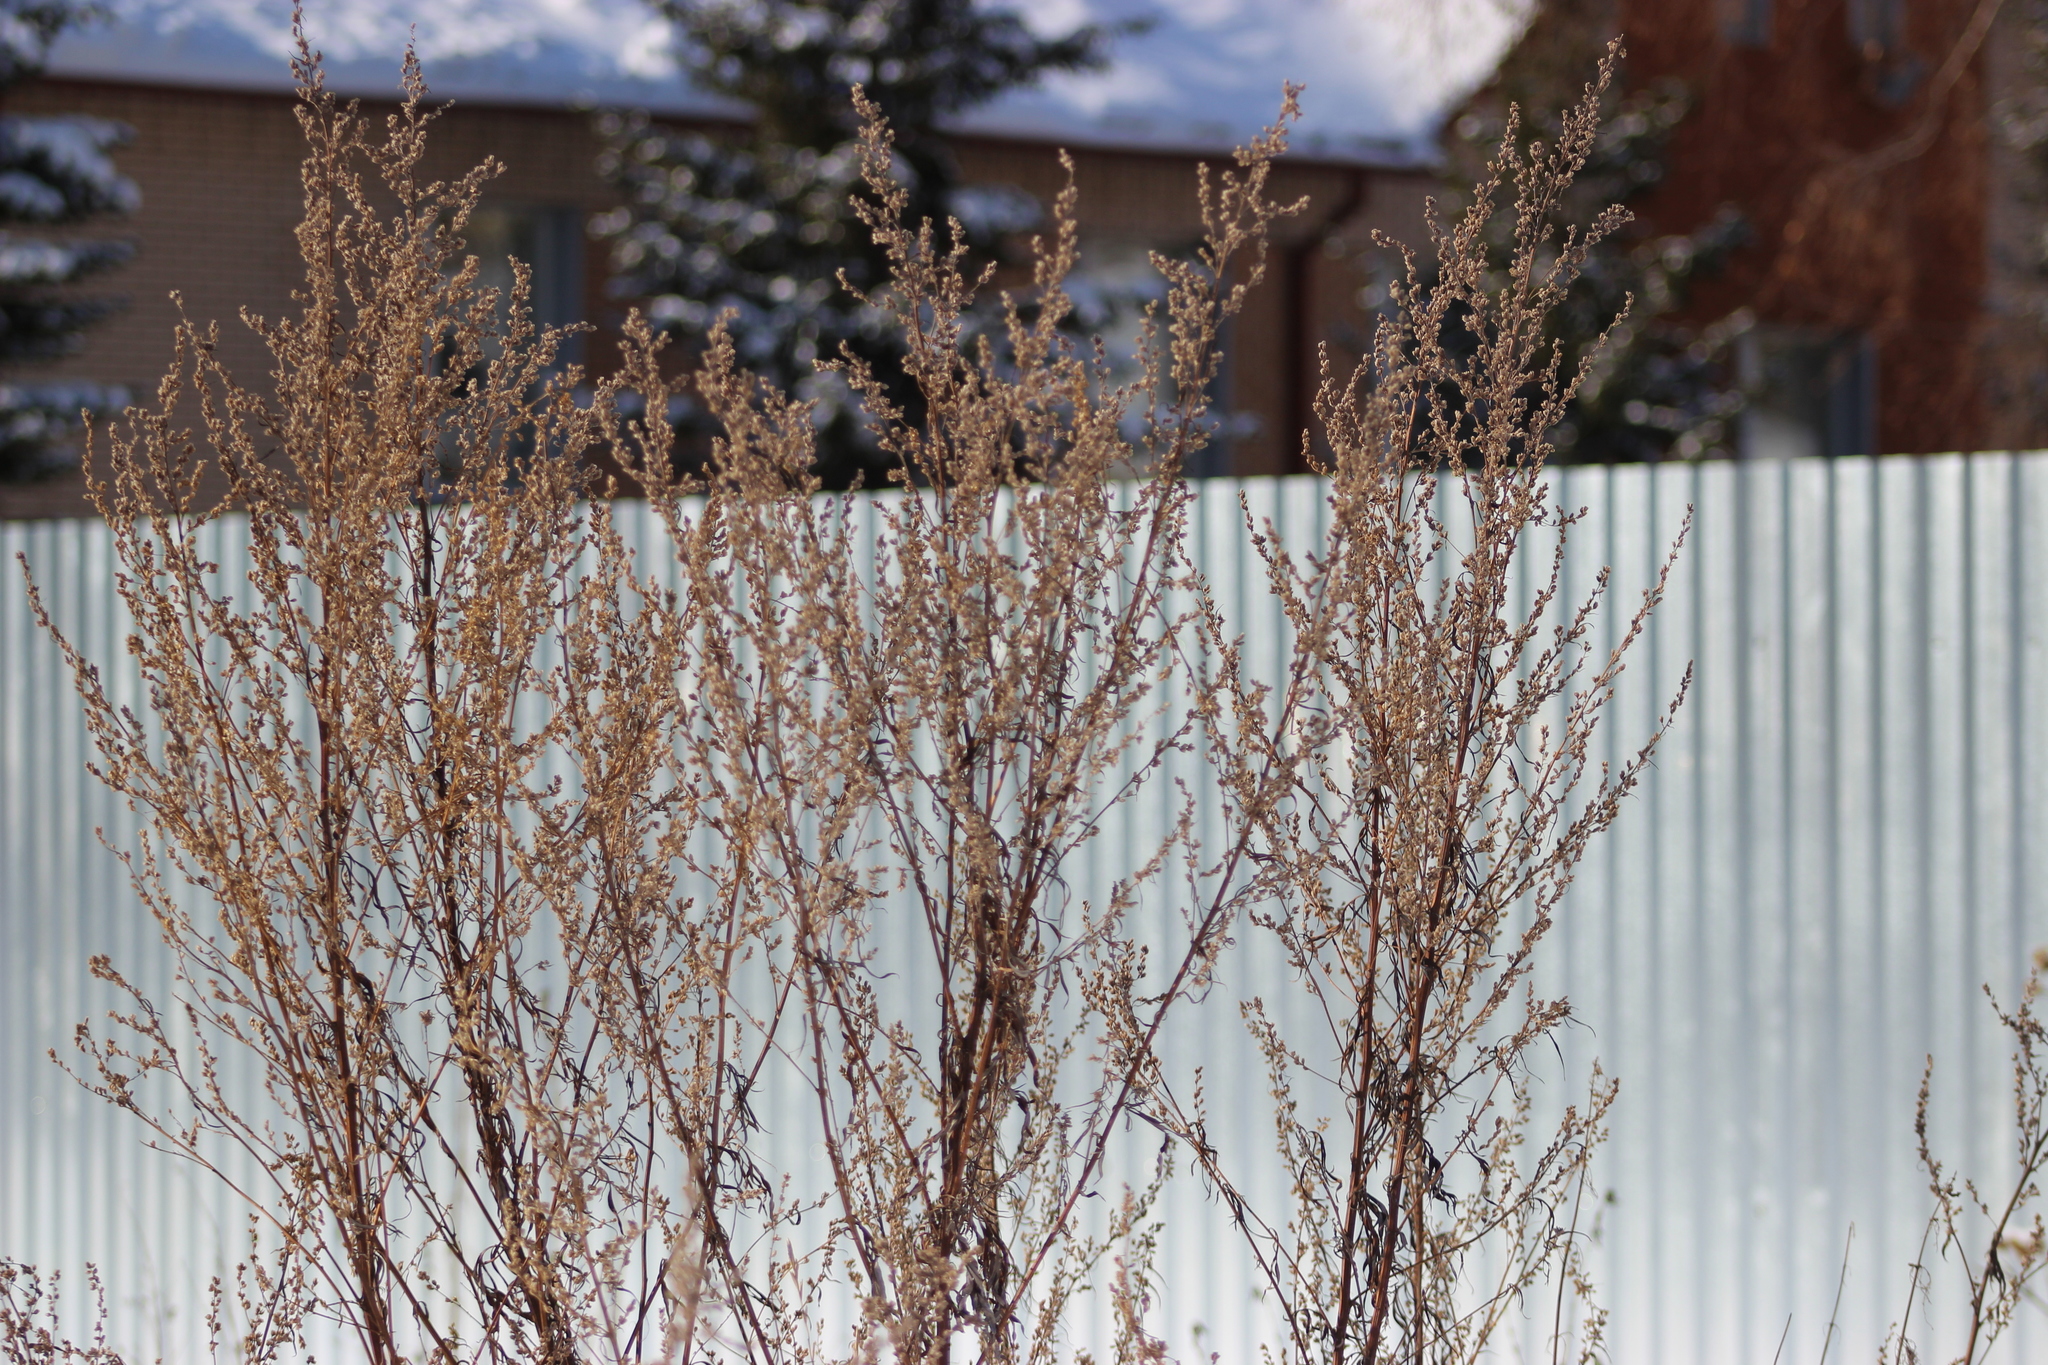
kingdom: Plantae
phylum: Tracheophyta
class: Magnoliopsida
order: Asterales
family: Asteraceae
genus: Artemisia
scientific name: Artemisia vulgaris
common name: Mugwort
